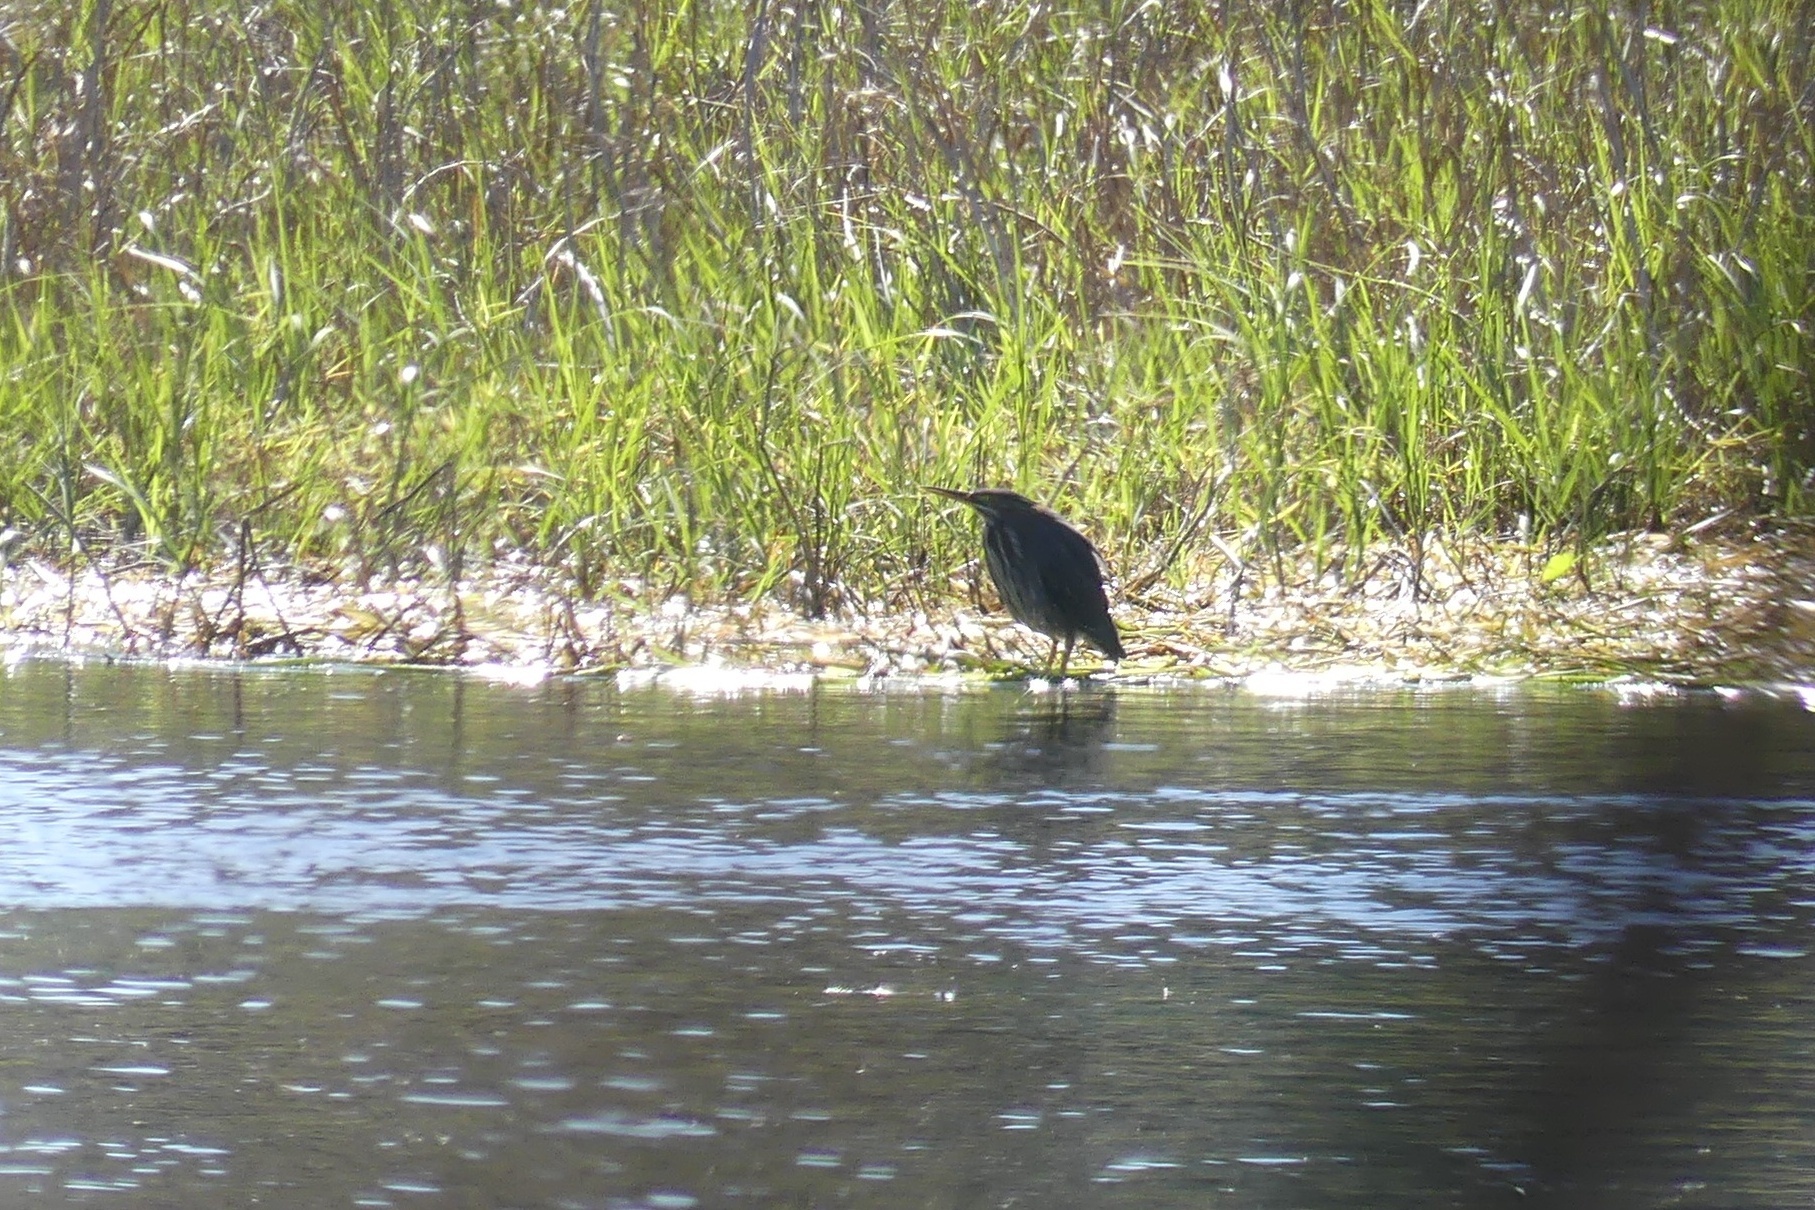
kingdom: Animalia
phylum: Chordata
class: Aves
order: Pelecaniformes
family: Ardeidae
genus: Butorides
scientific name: Butorides virescens
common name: Green heron
